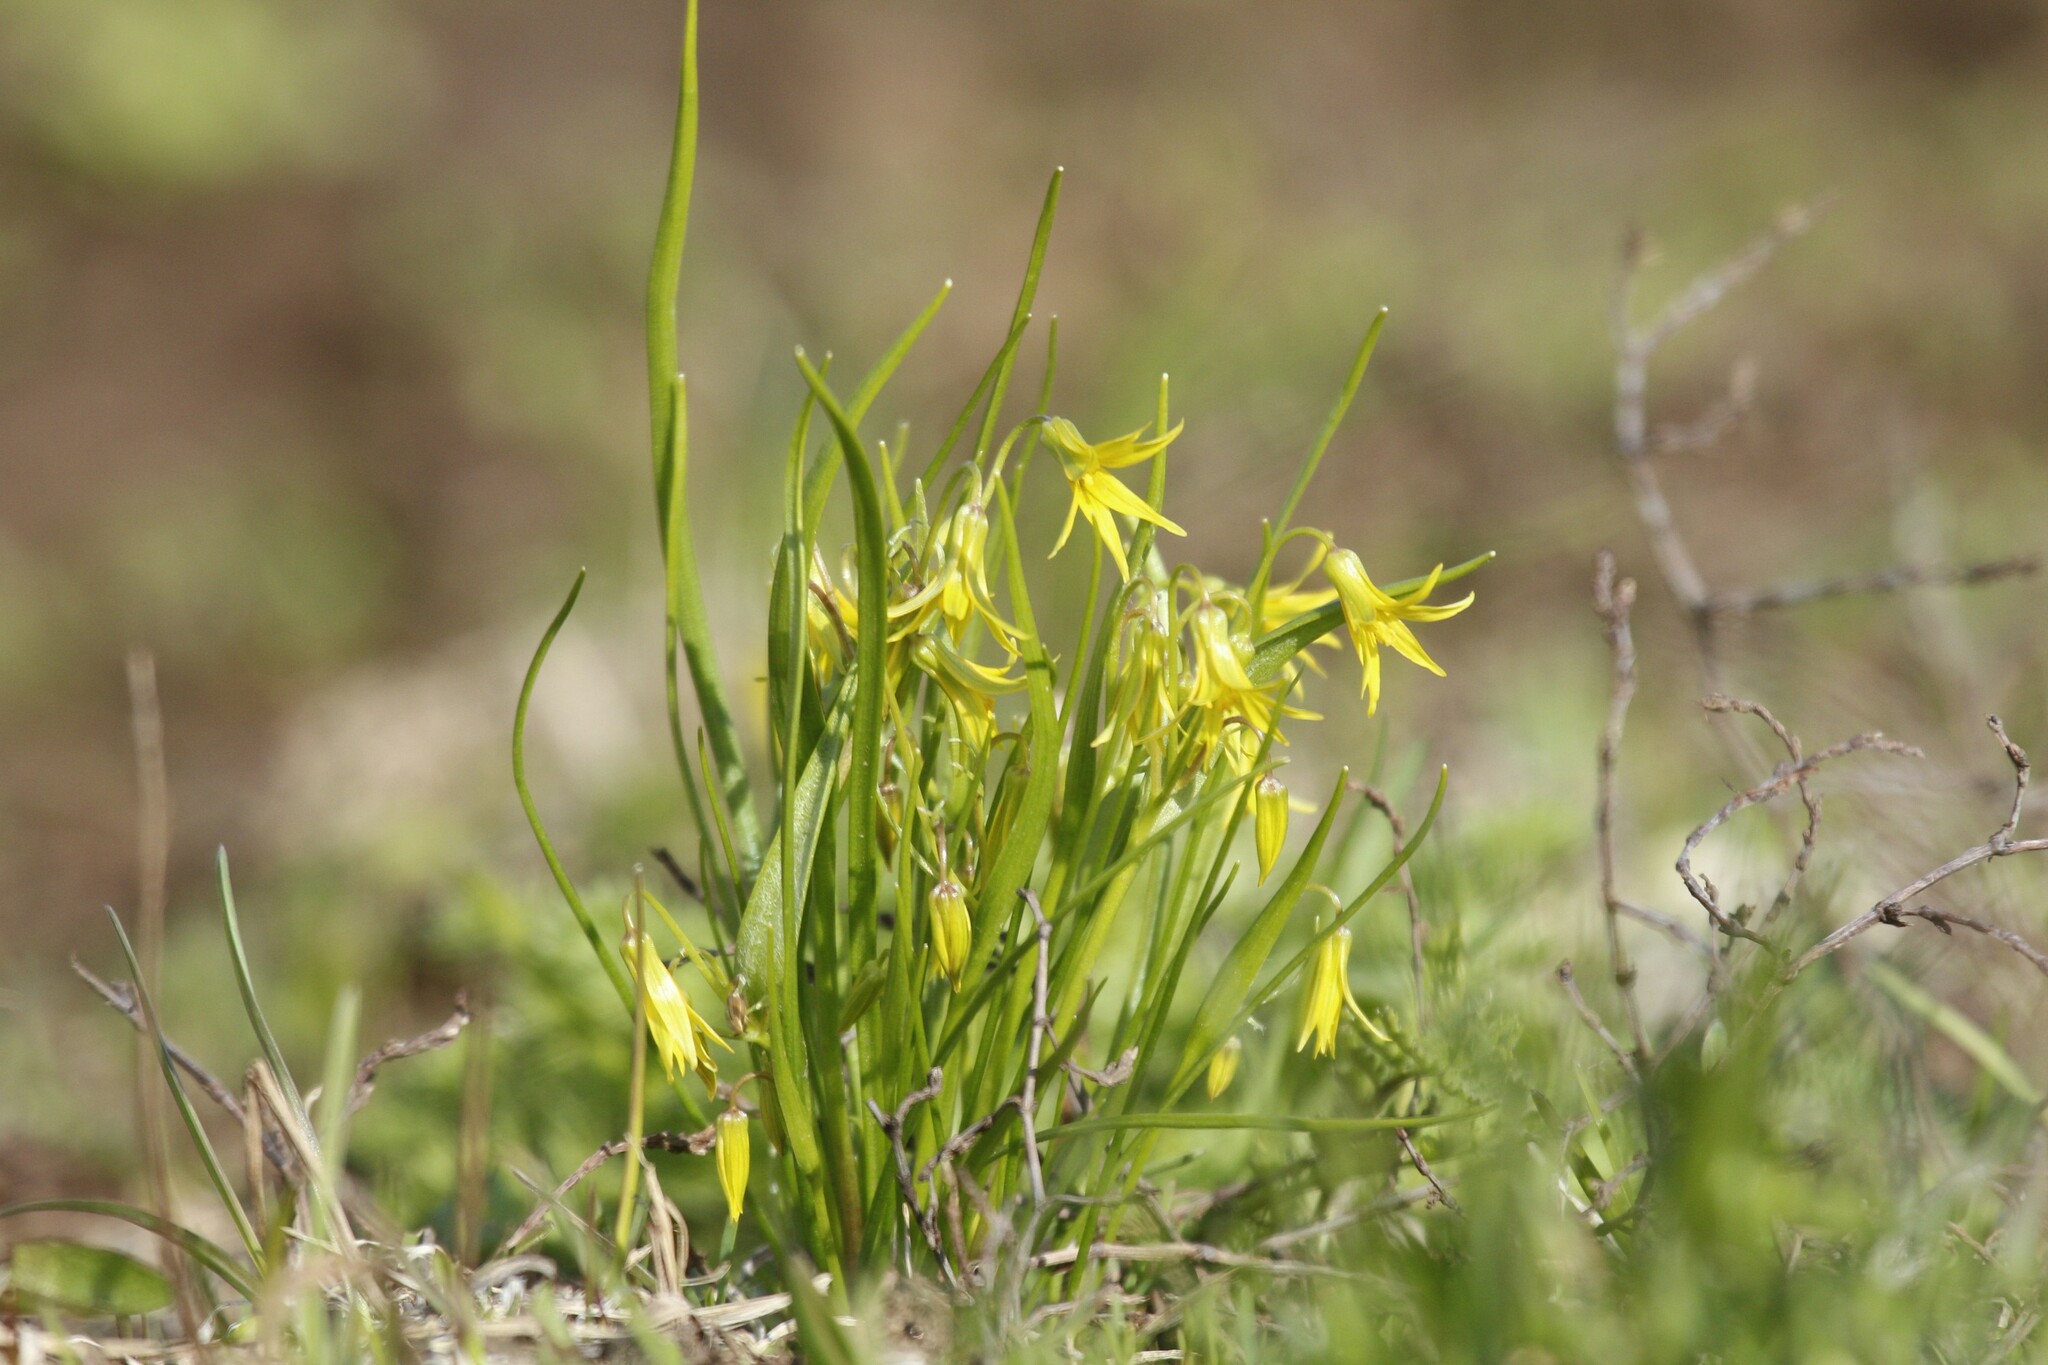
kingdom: Plantae
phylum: Tracheophyta
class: Liliopsida
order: Liliales
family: Liliaceae
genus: Gagea
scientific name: Gagea minima
